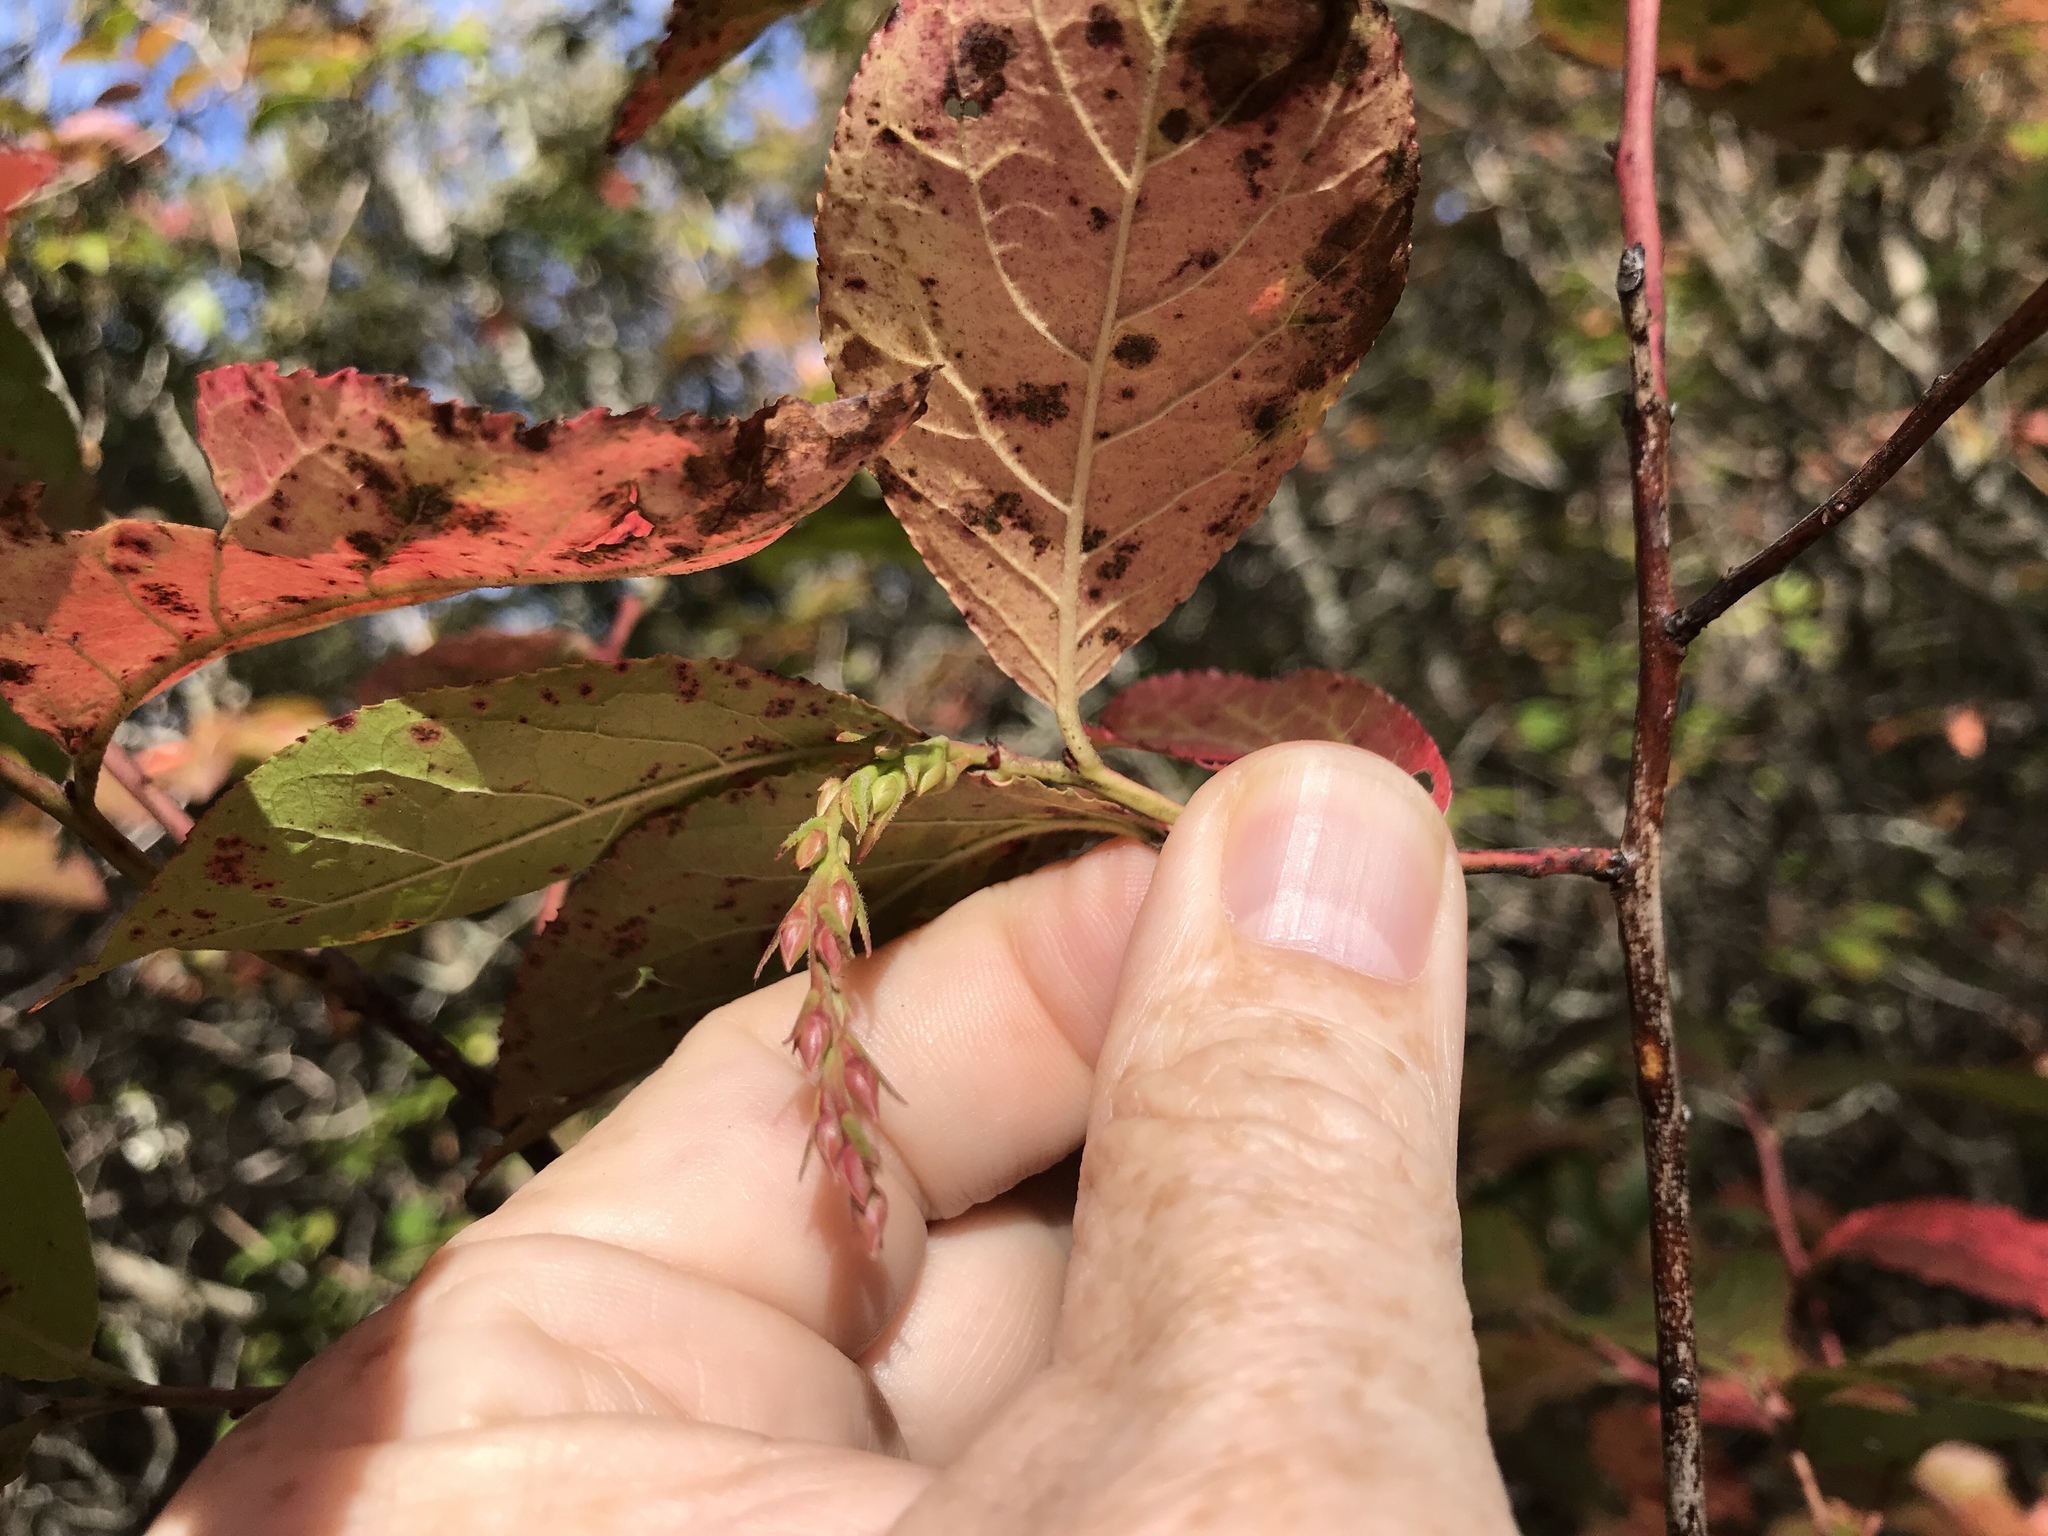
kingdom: Plantae
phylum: Tracheophyta
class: Magnoliopsida
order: Ericales
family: Ericaceae
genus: Eubotrys
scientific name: Eubotrys recurva
